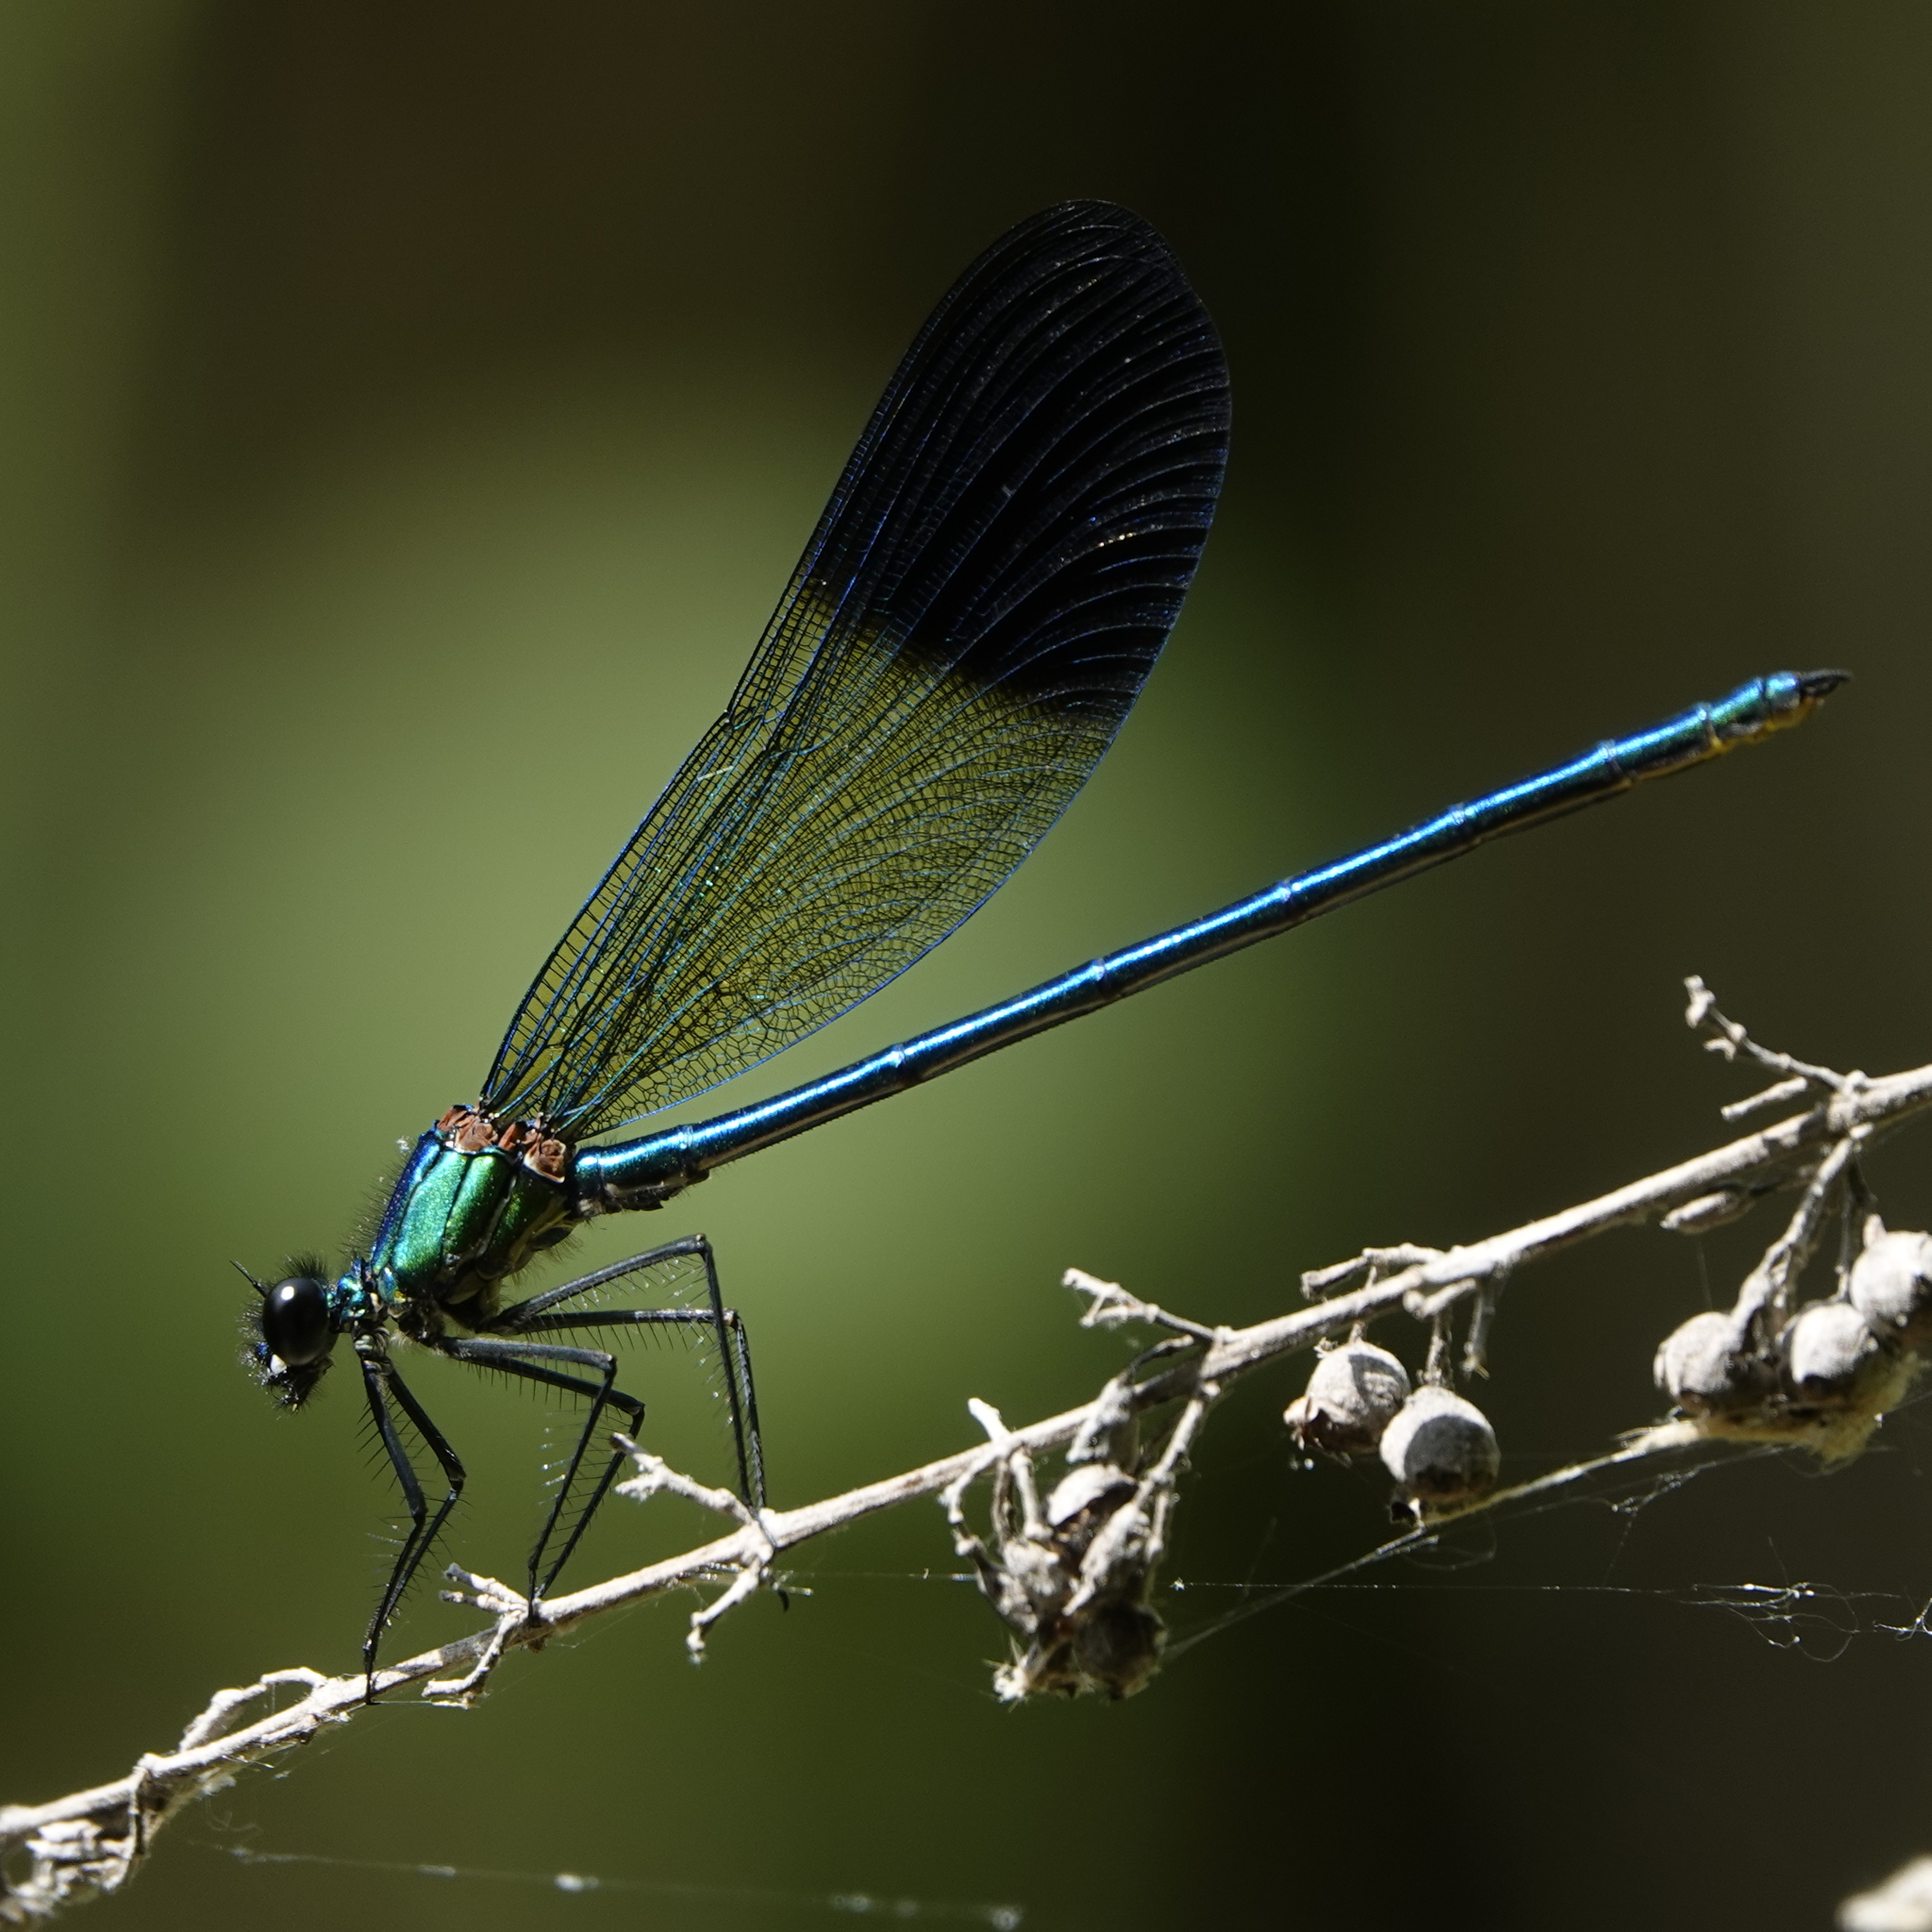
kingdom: Animalia
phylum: Arthropoda
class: Insecta
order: Odonata
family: Calopterygidae
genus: Calopteryx
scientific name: Calopteryx syriaca
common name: Syrian demoiselle
